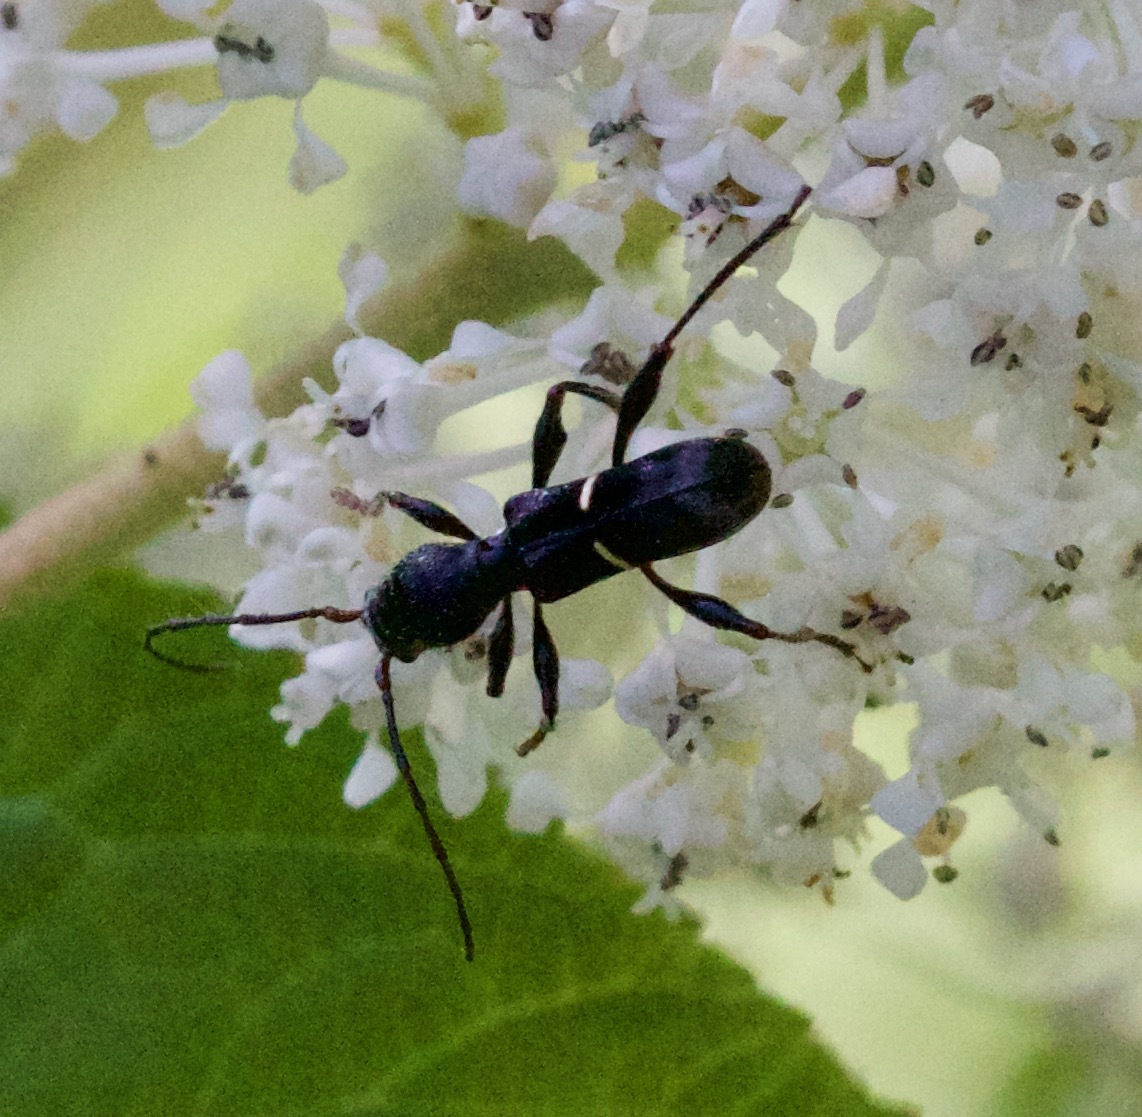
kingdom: Animalia
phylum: Arthropoda
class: Insecta
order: Coleoptera
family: Cerambycidae
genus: Euderces
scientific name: Euderces picipes
